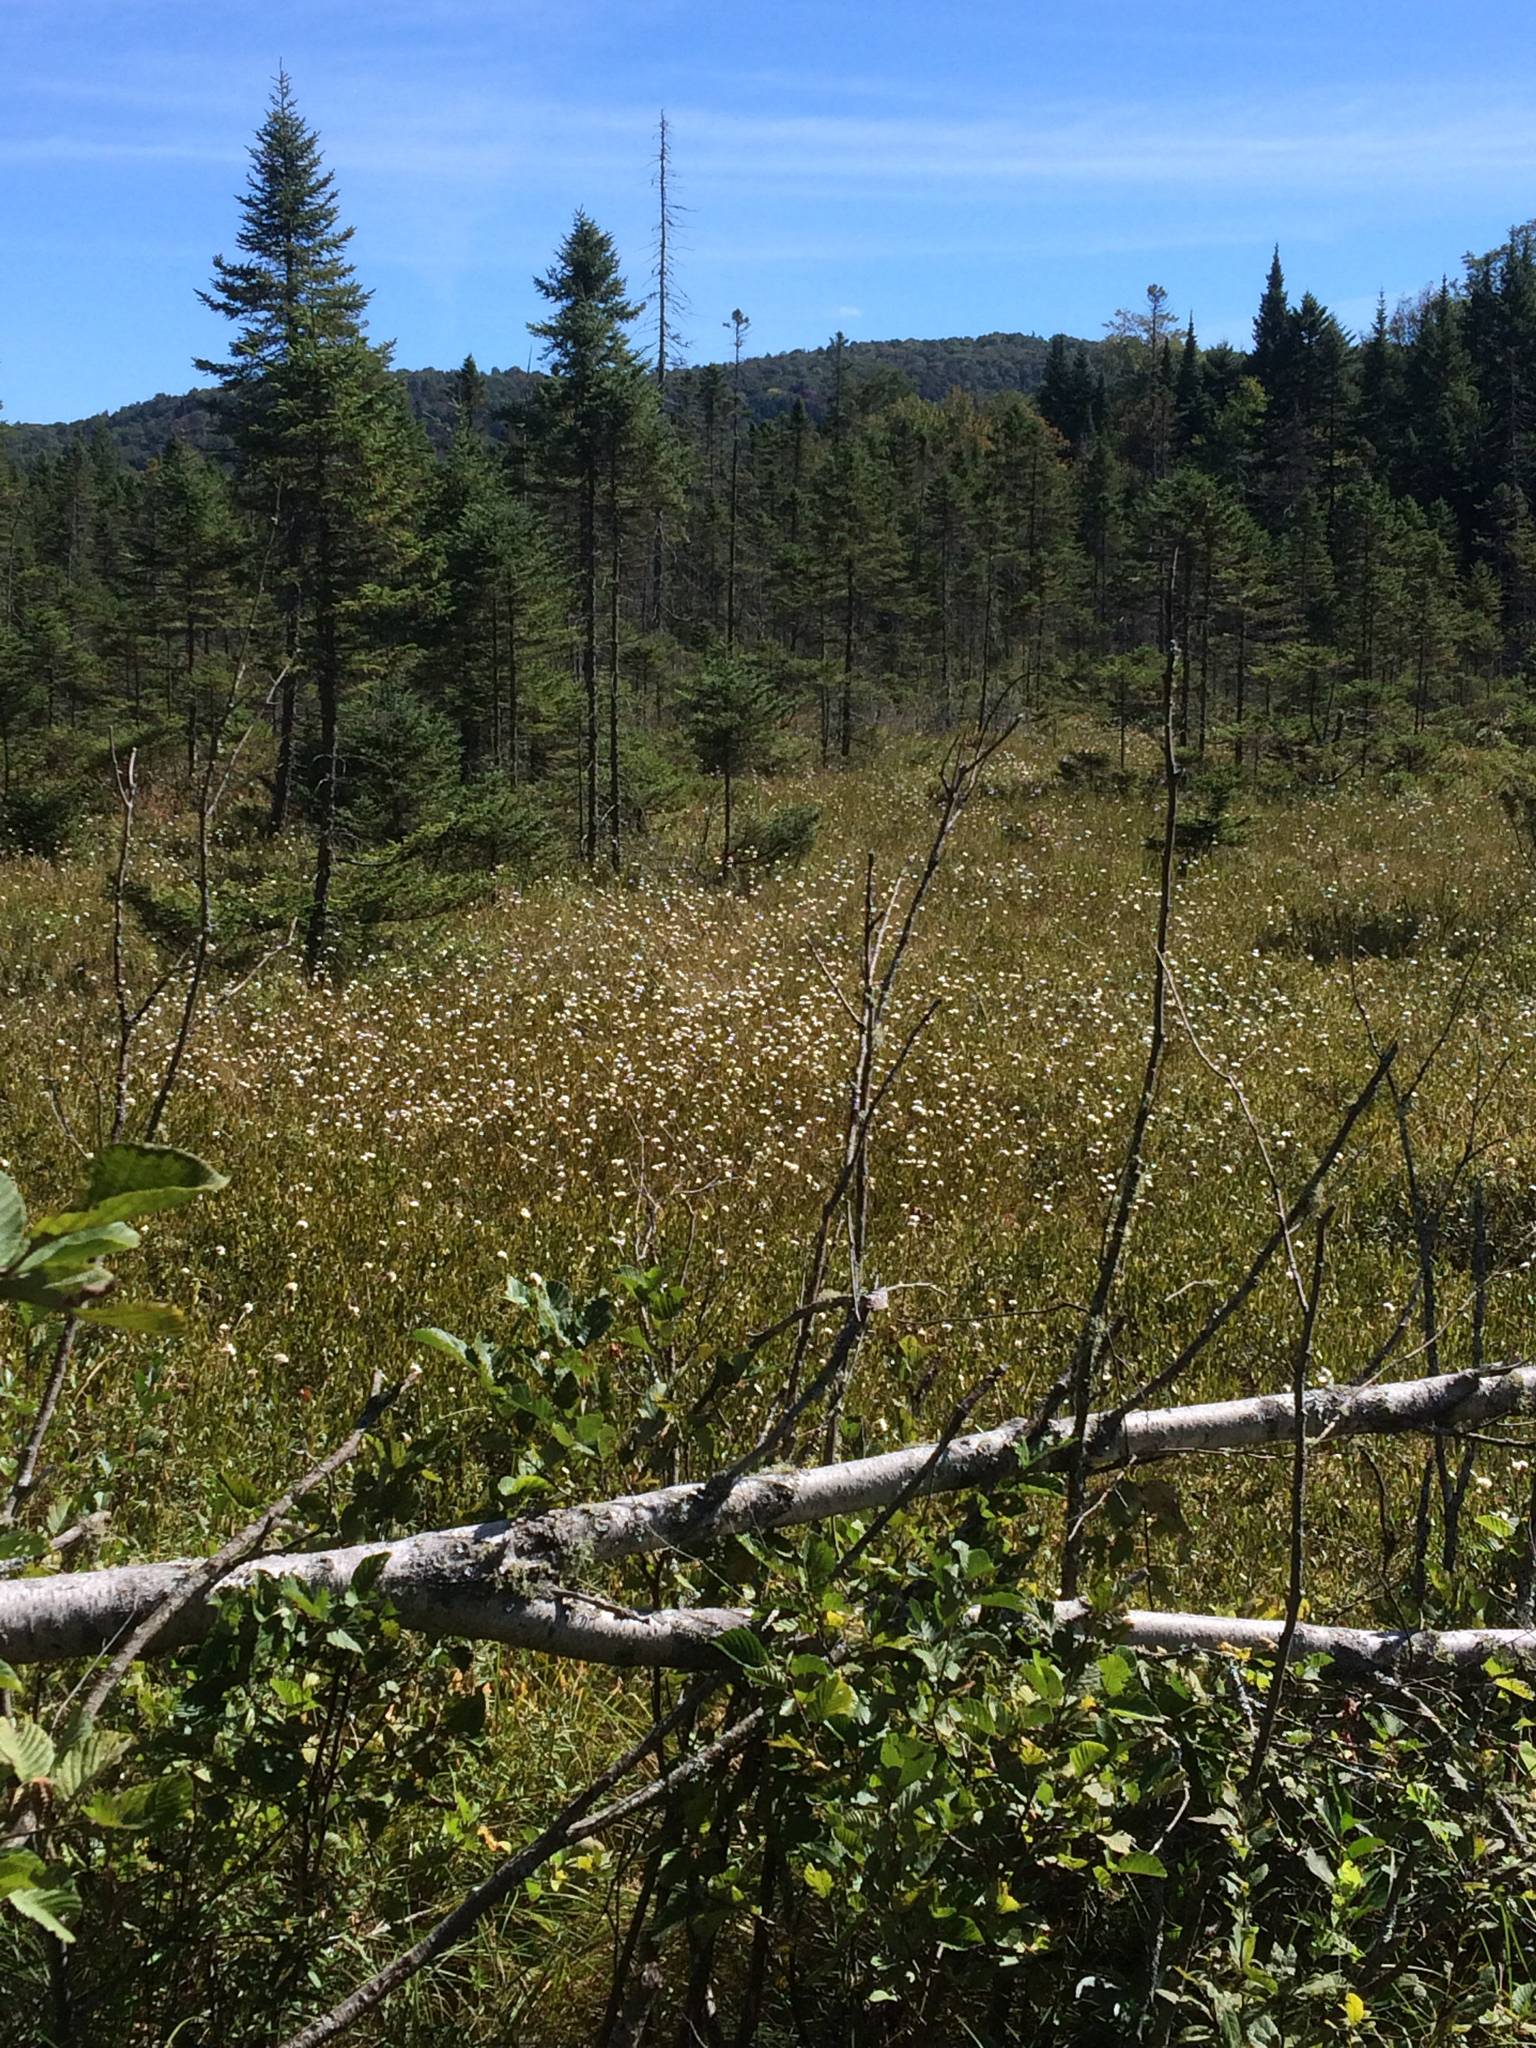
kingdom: Plantae
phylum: Tracheophyta
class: Liliopsida
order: Poales
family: Cyperaceae
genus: Eriophorum
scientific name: Eriophorum virginicum
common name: Tawny cottongrass
